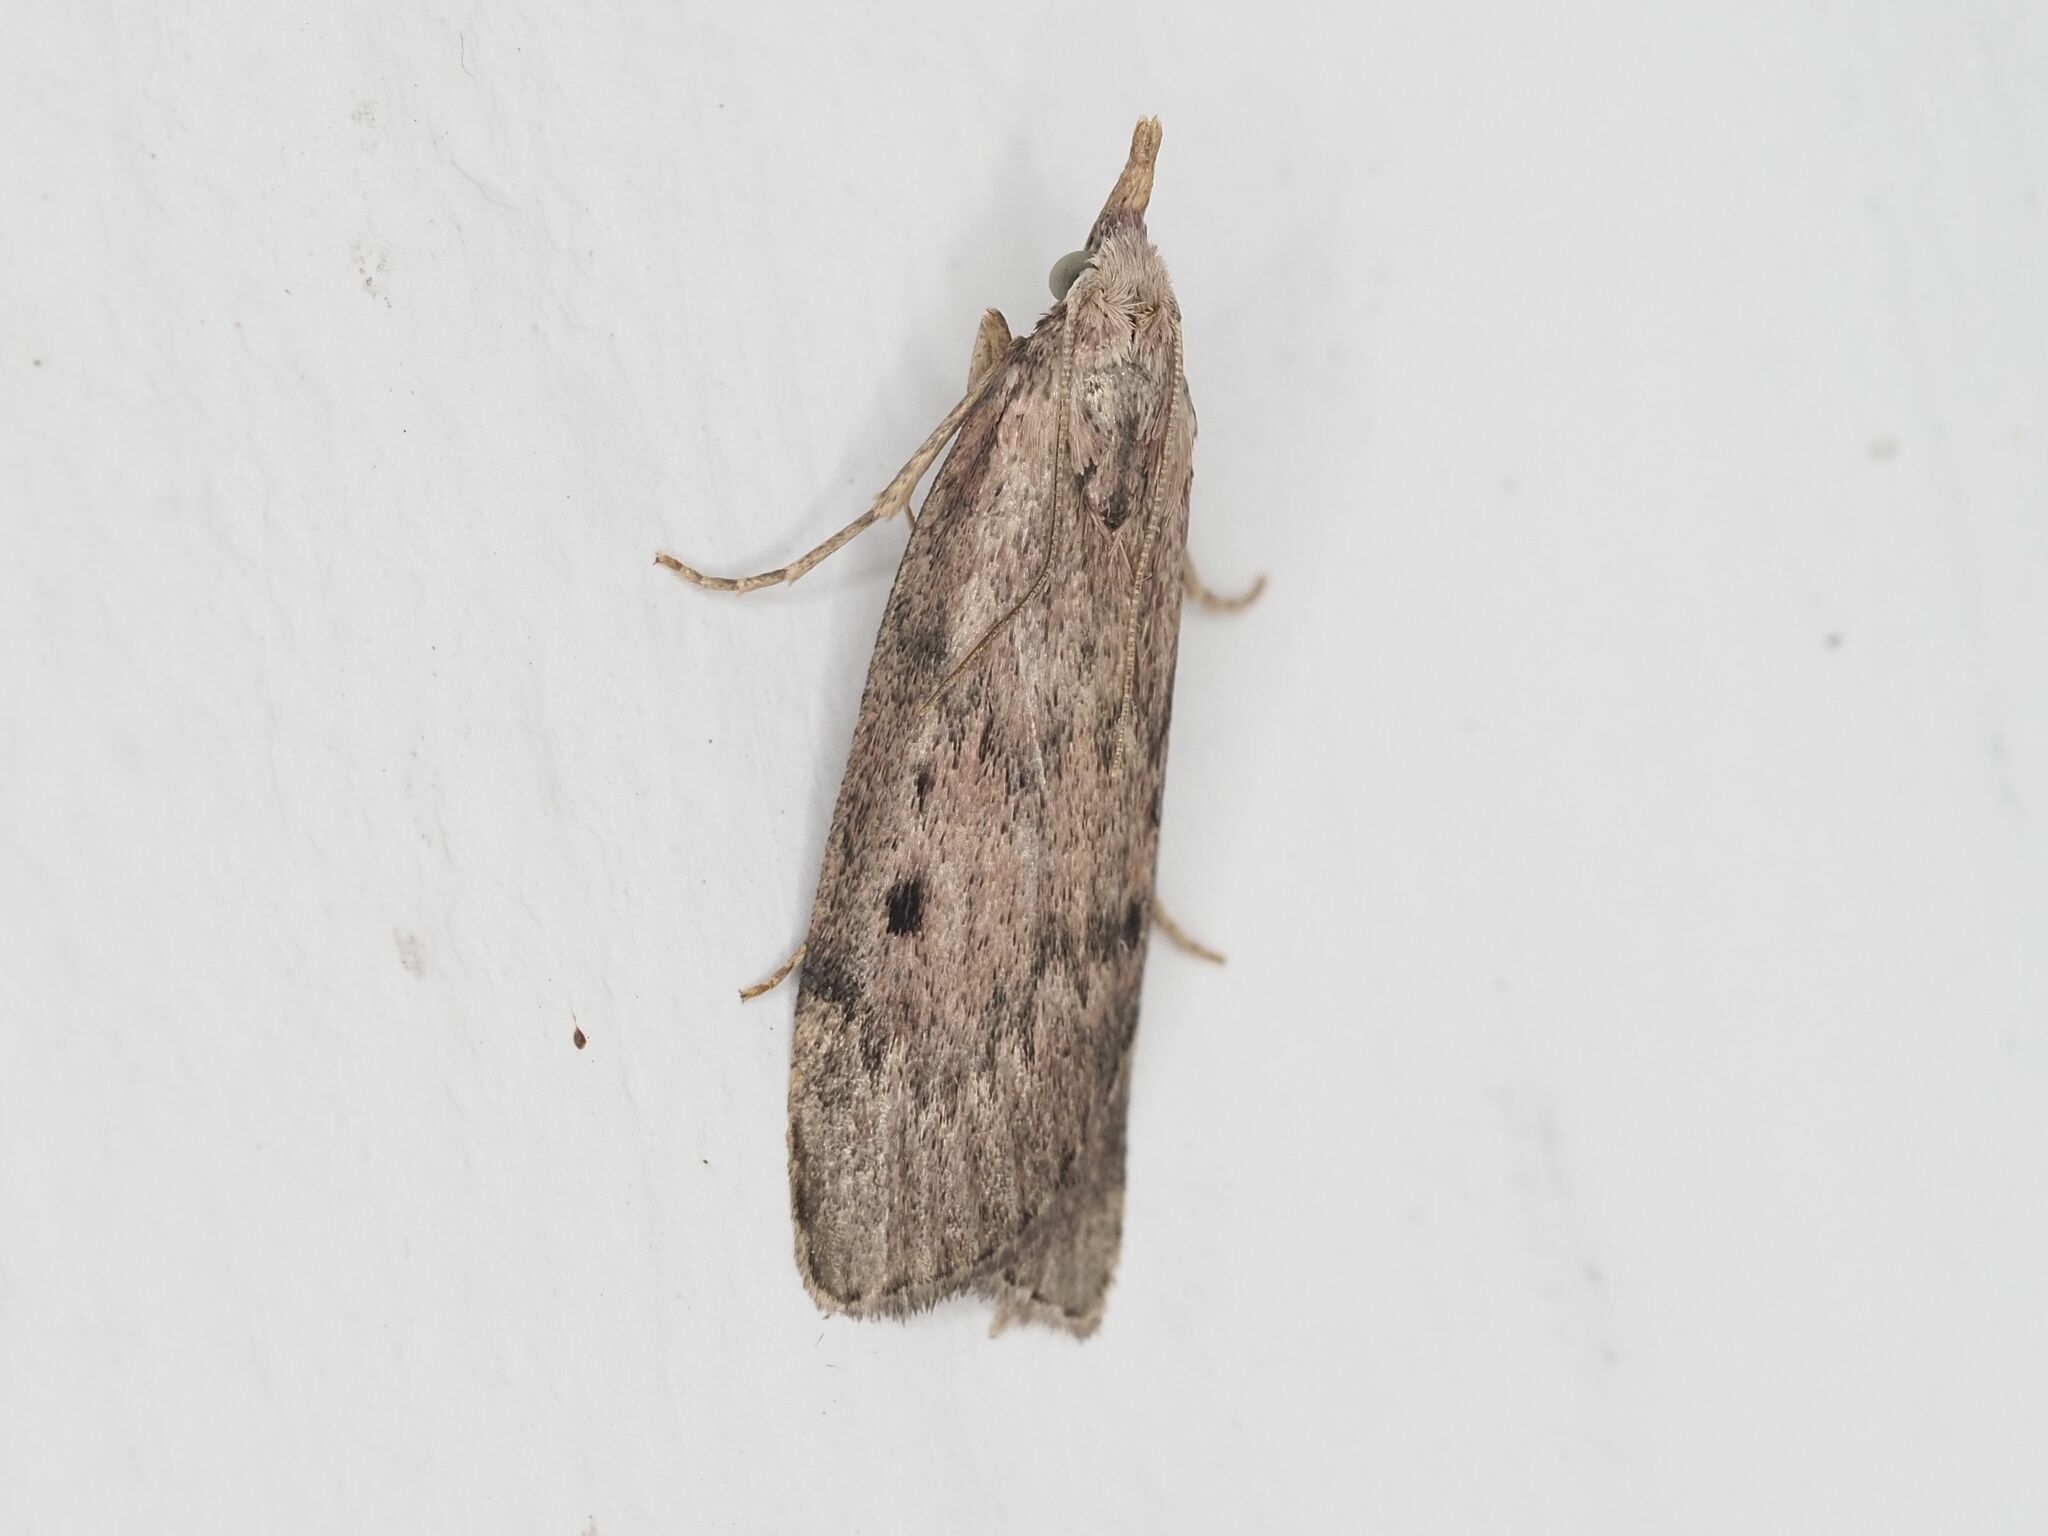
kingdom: Animalia
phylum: Arthropoda
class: Insecta
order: Lepidoptera
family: Pyralidae
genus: Aphomia
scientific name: Aphomia sociella
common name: Bee moth
